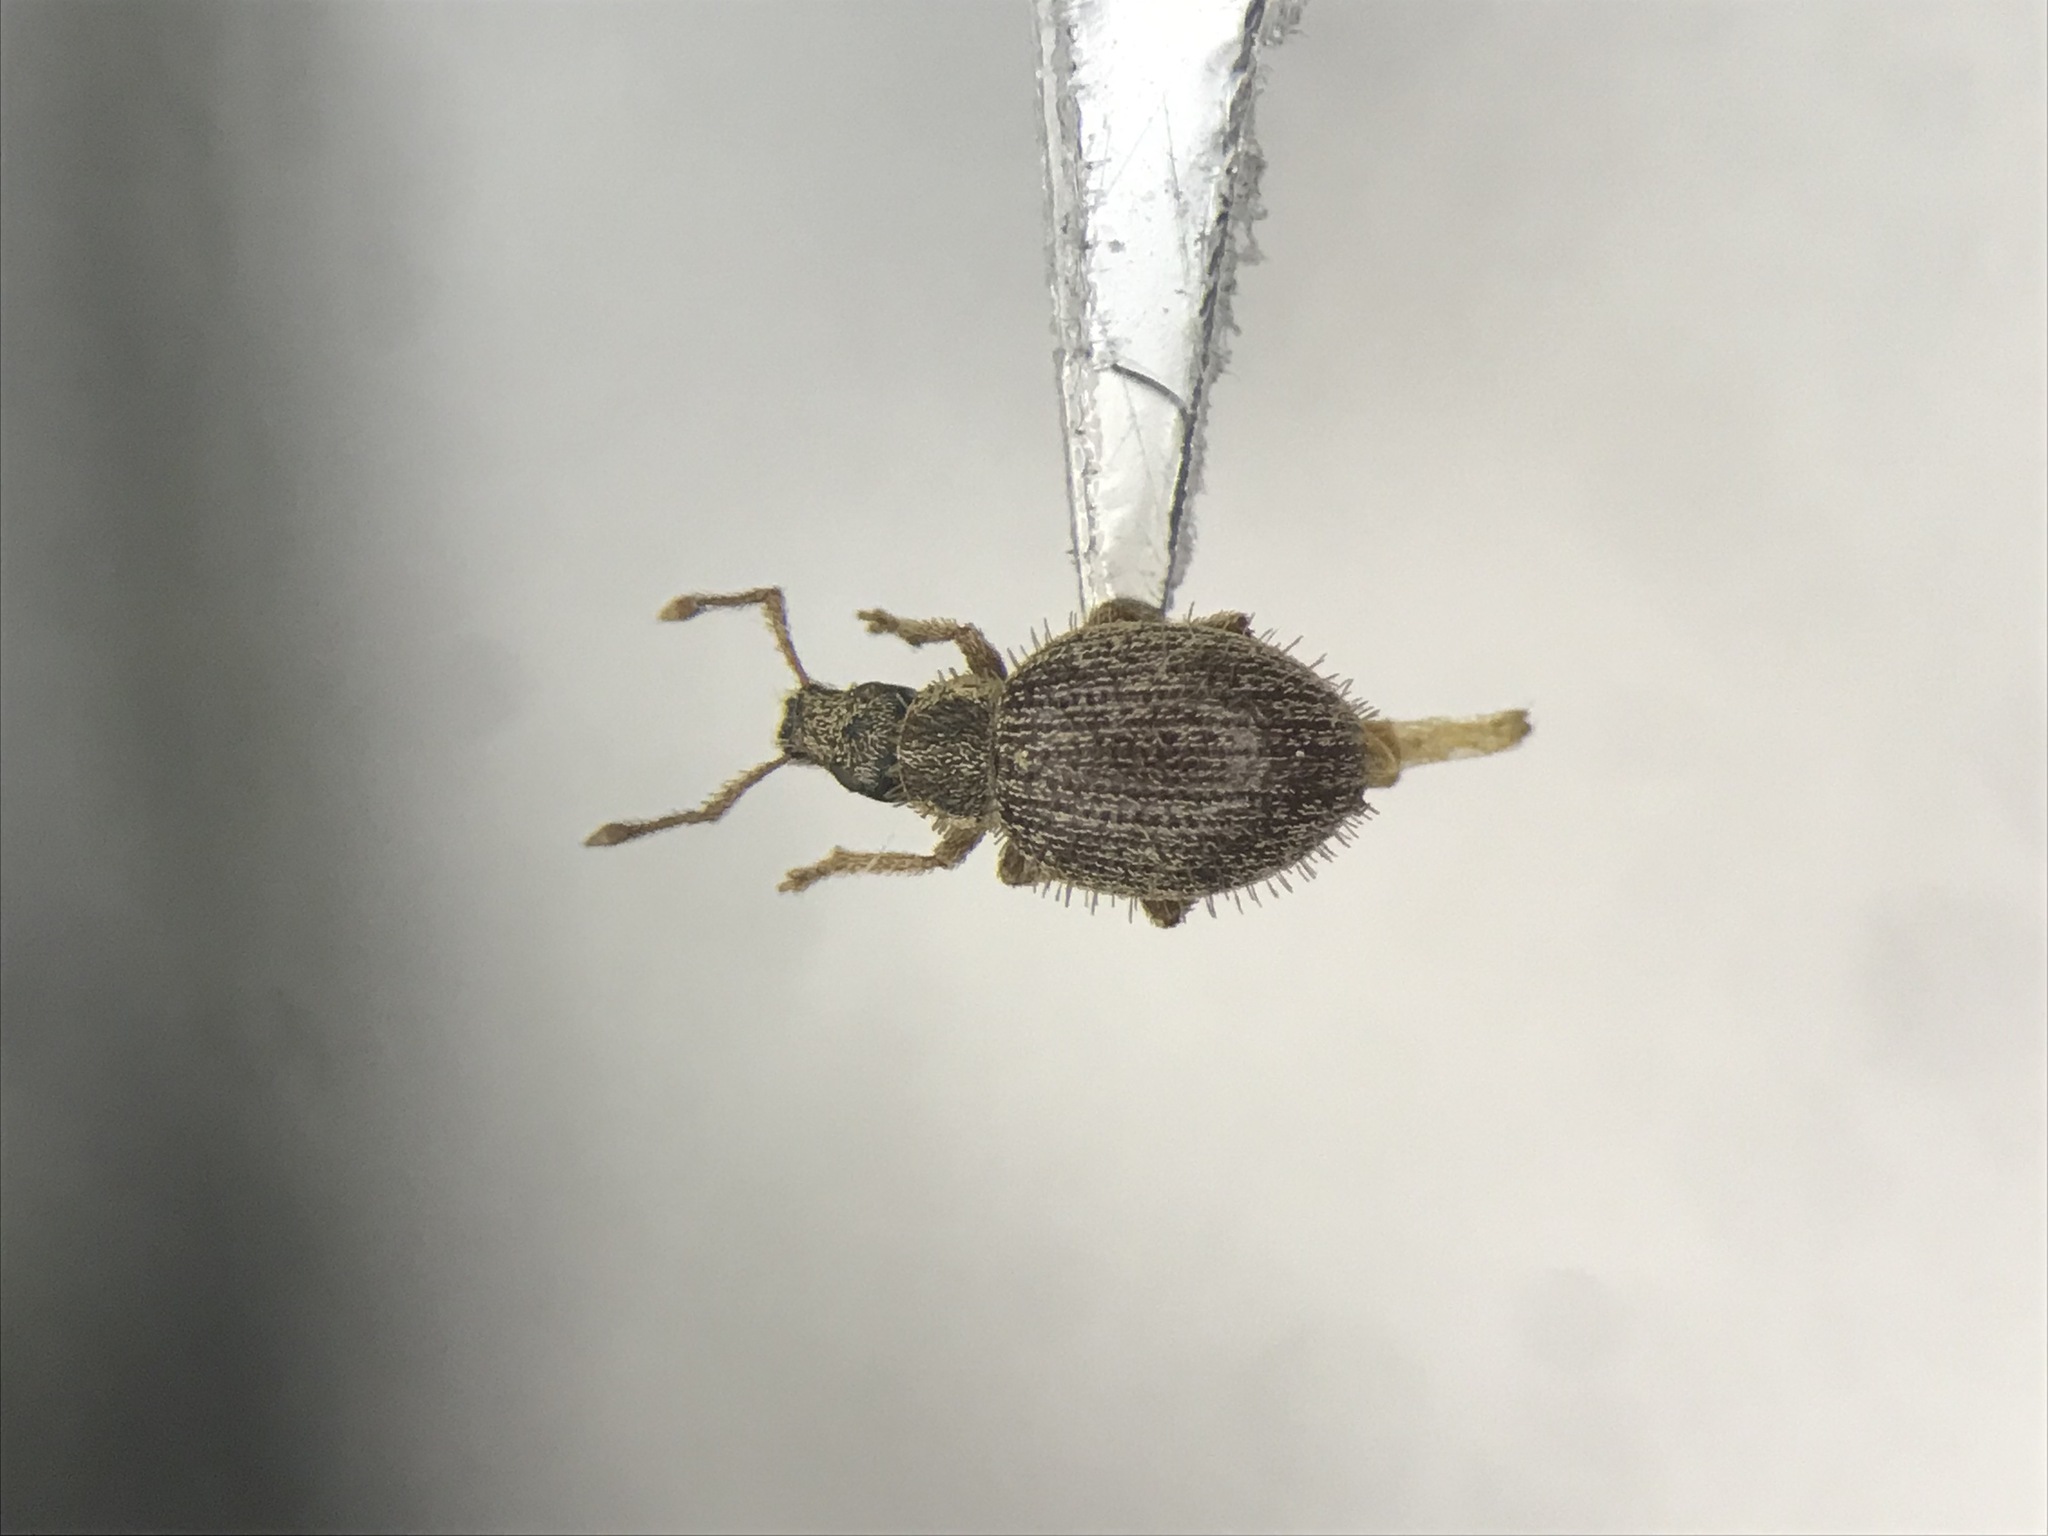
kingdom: Animalia
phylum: Arthropoda
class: Insecta
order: Coleoptera
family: Curculionidae
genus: Brachysomus
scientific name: Brachysomus echinatus
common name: Weevil
